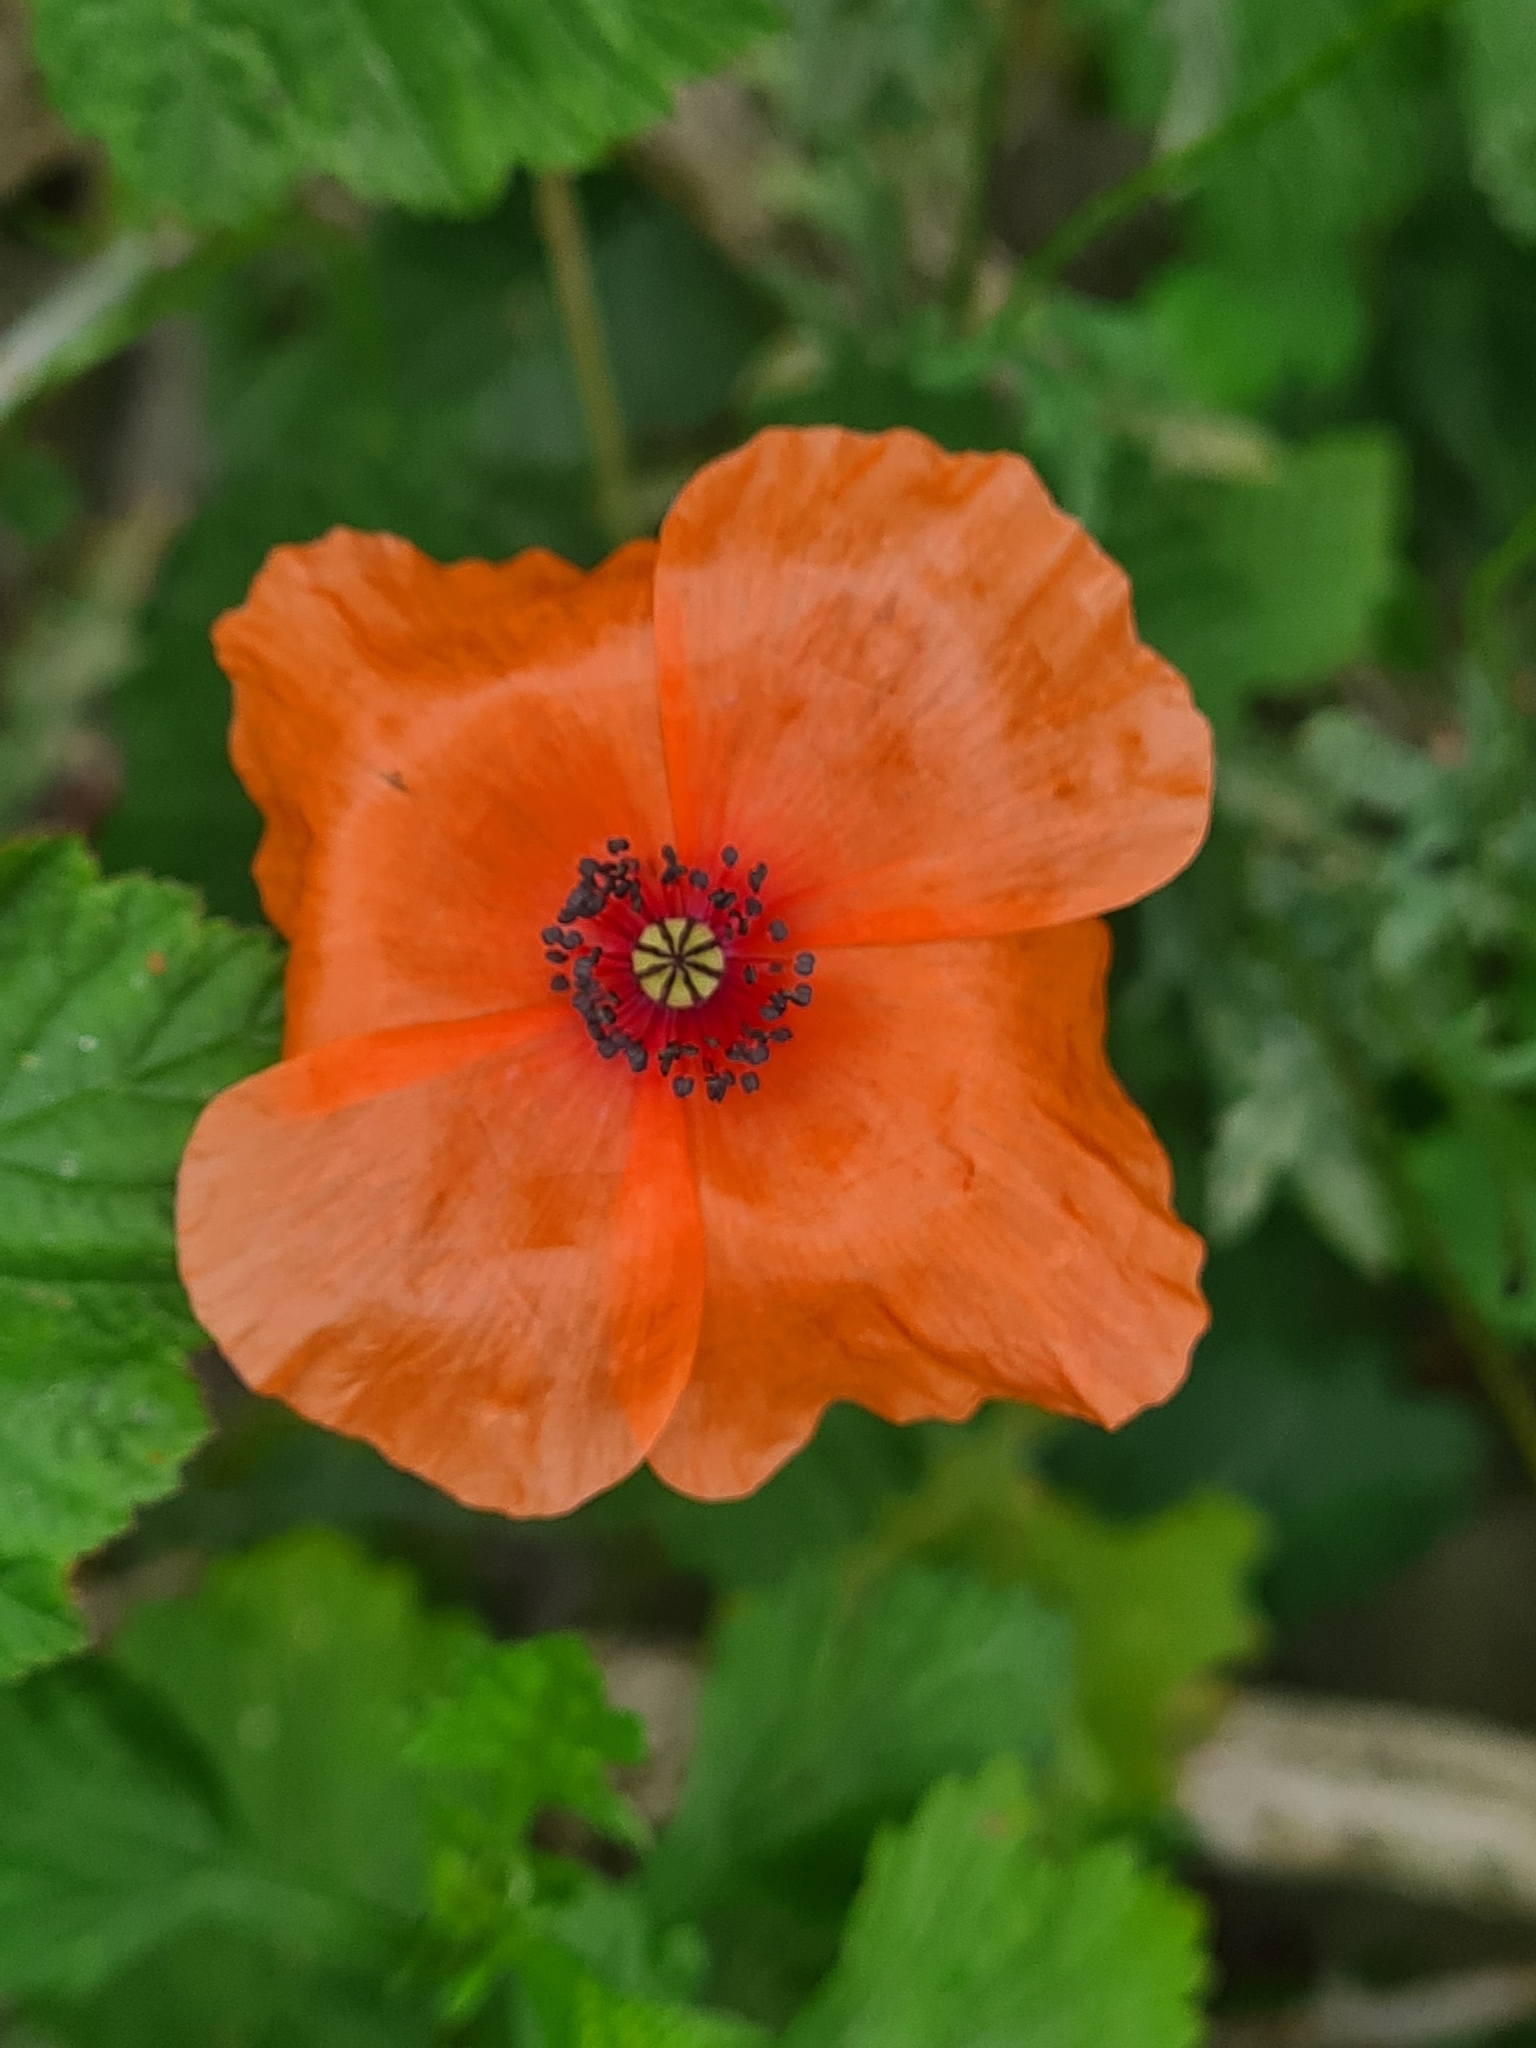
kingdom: Plantae
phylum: Tracheophyta
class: Magnoliopsida
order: Ranunculales
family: Papaveraceae
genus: Papaver
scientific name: Papaver rhoeas
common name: Corn poppy
